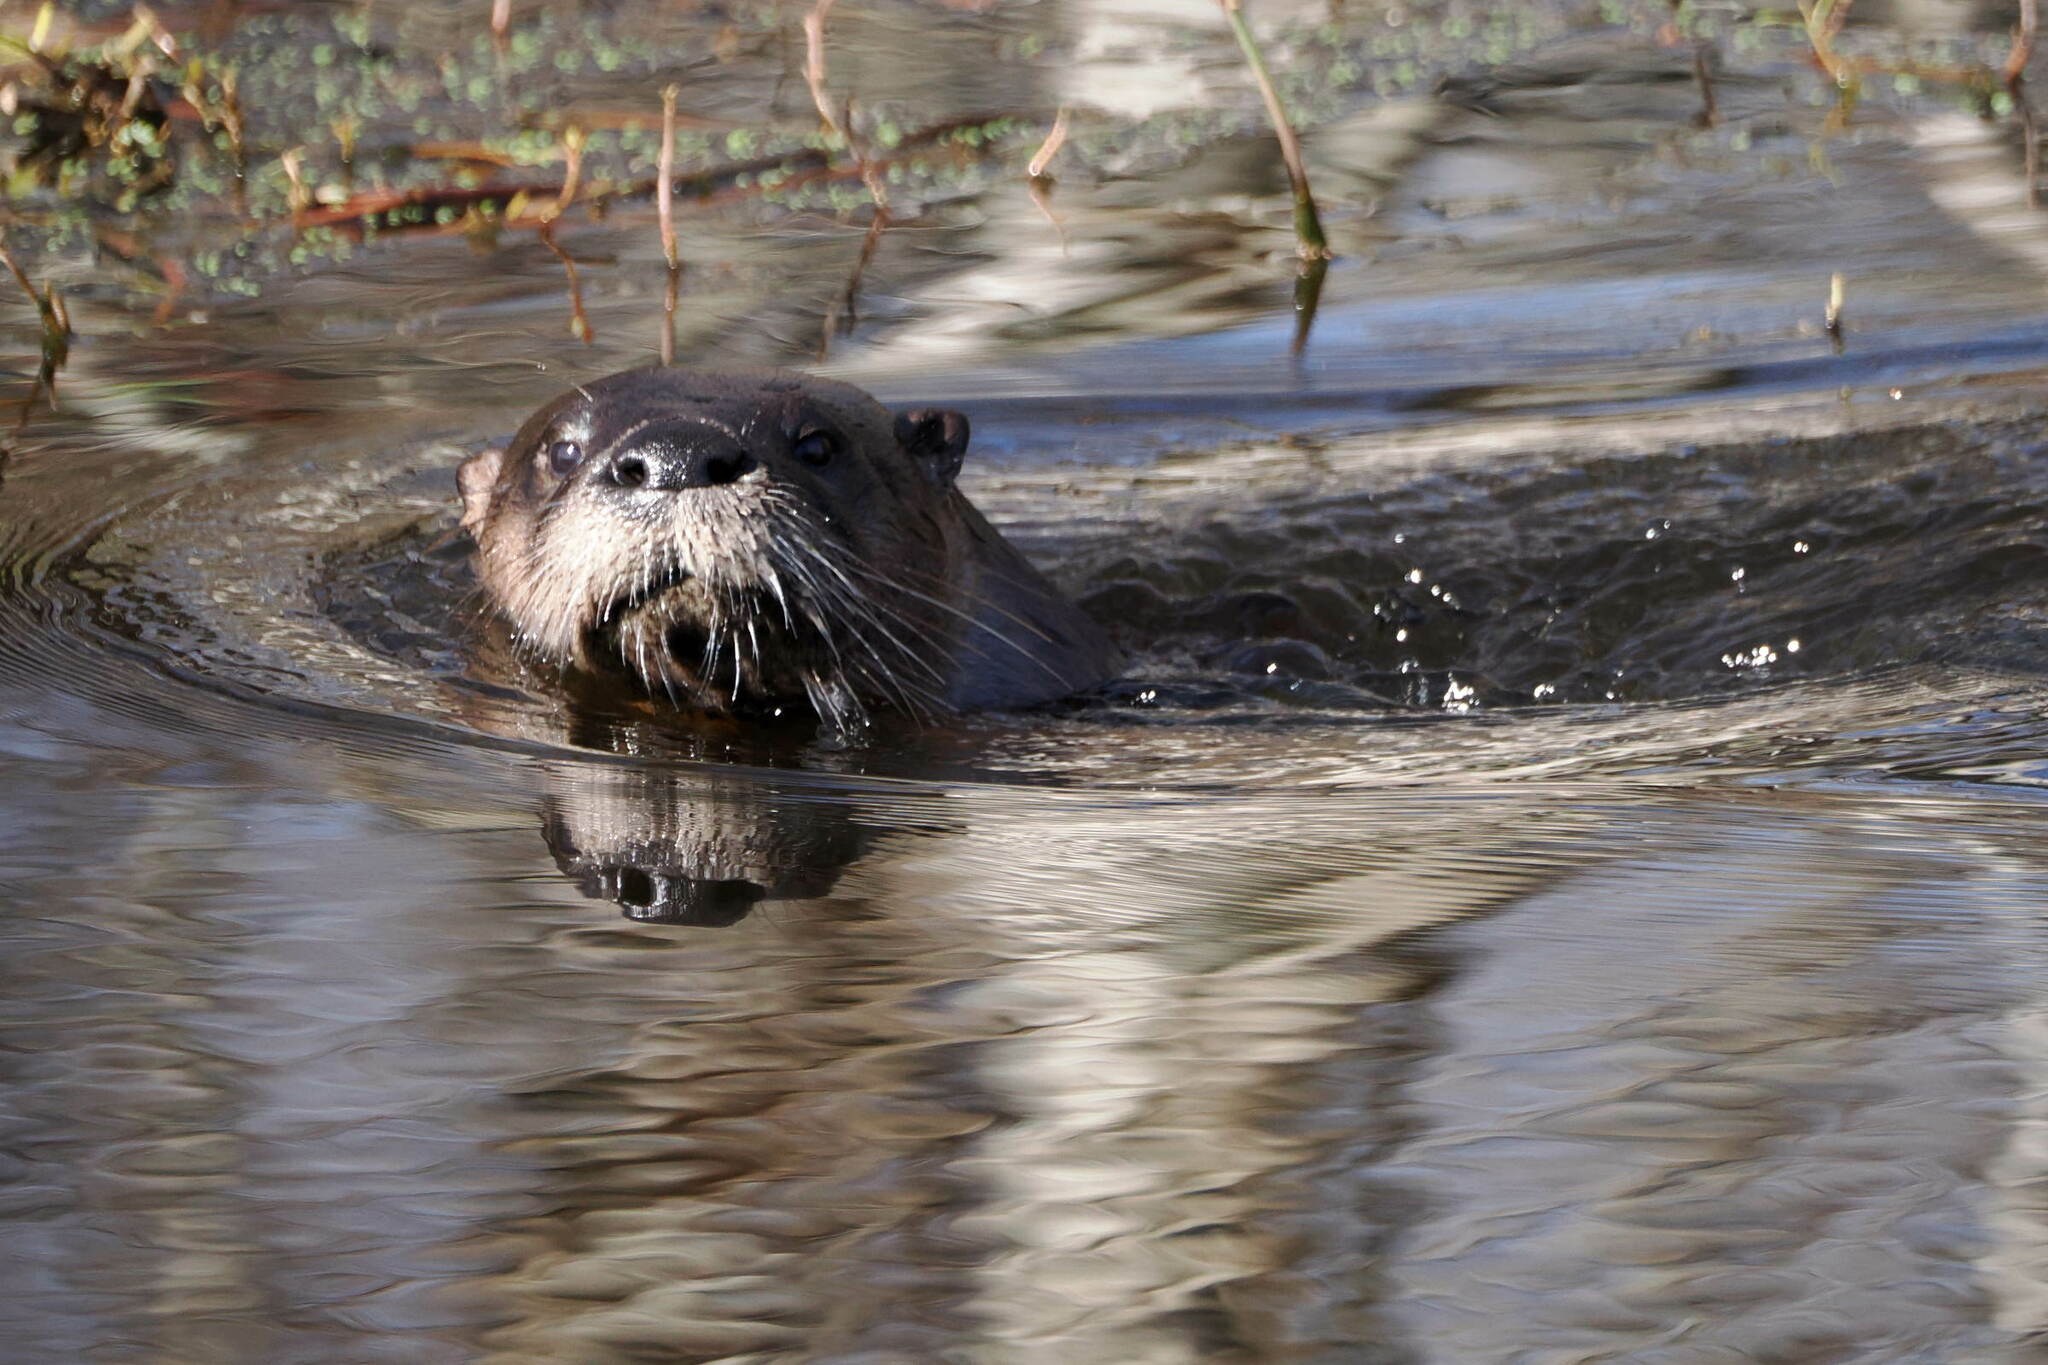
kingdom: Animalia
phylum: Chordata
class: Mammalia
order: Carnivora
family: Mustelidae
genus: Lontra
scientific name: Lontra canadensis
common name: North american river otter
